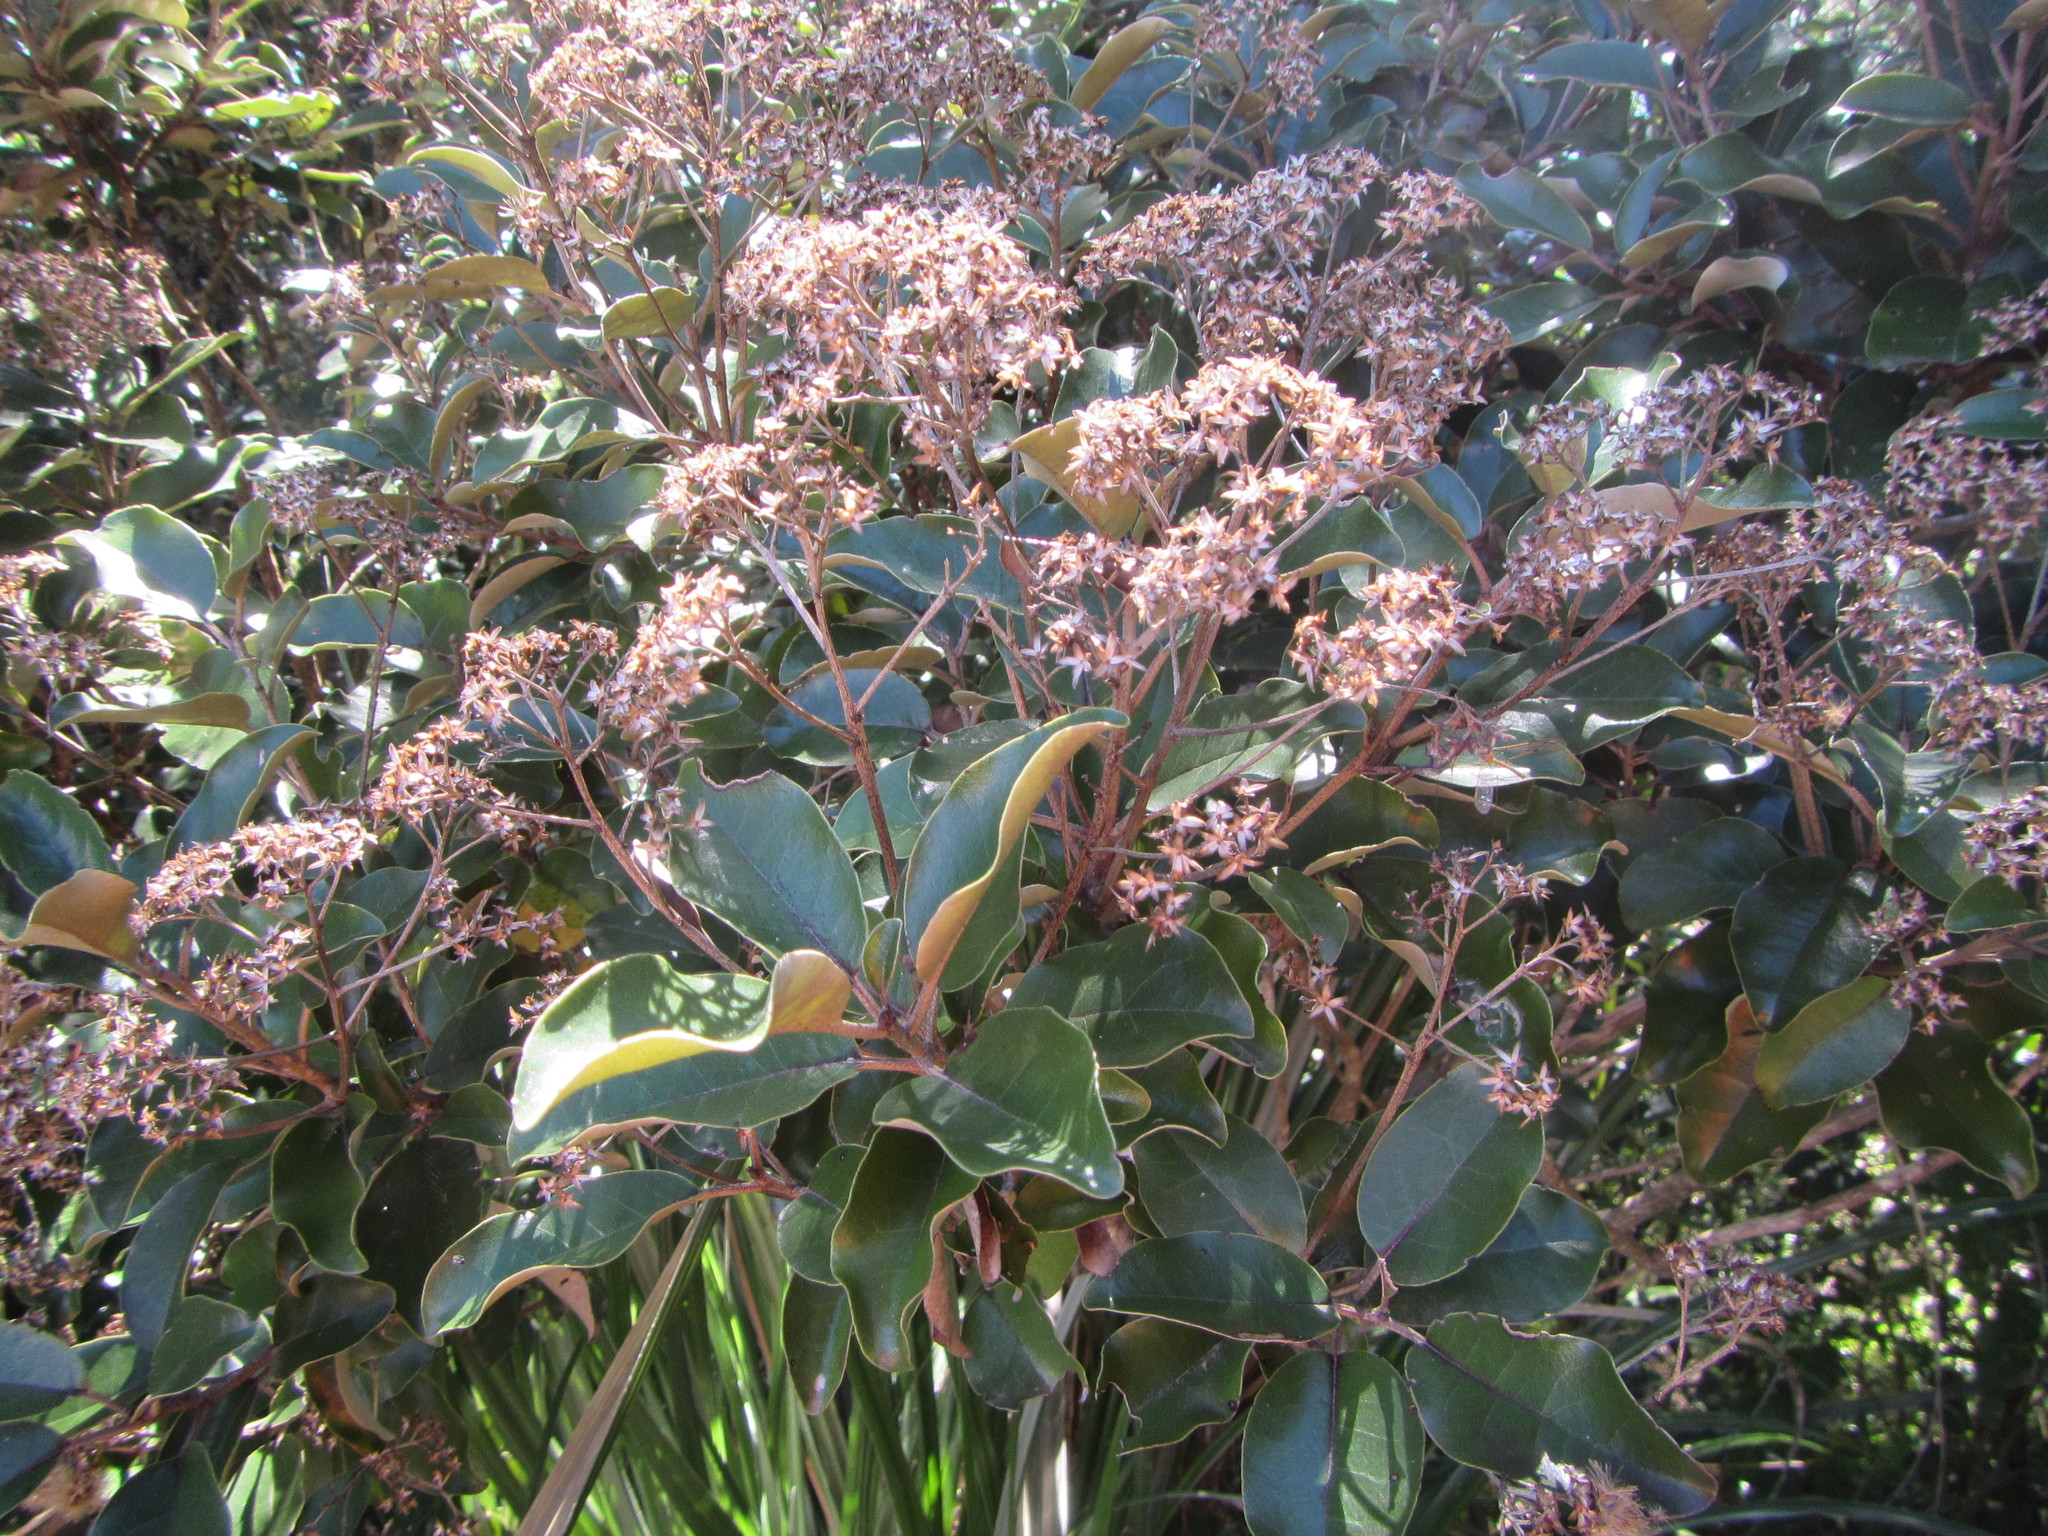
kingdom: Plantae
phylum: Tracheophyta
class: Magnoliopsida
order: Asterales
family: Asteraceae
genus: Olearia
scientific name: Olearia furfuracea
